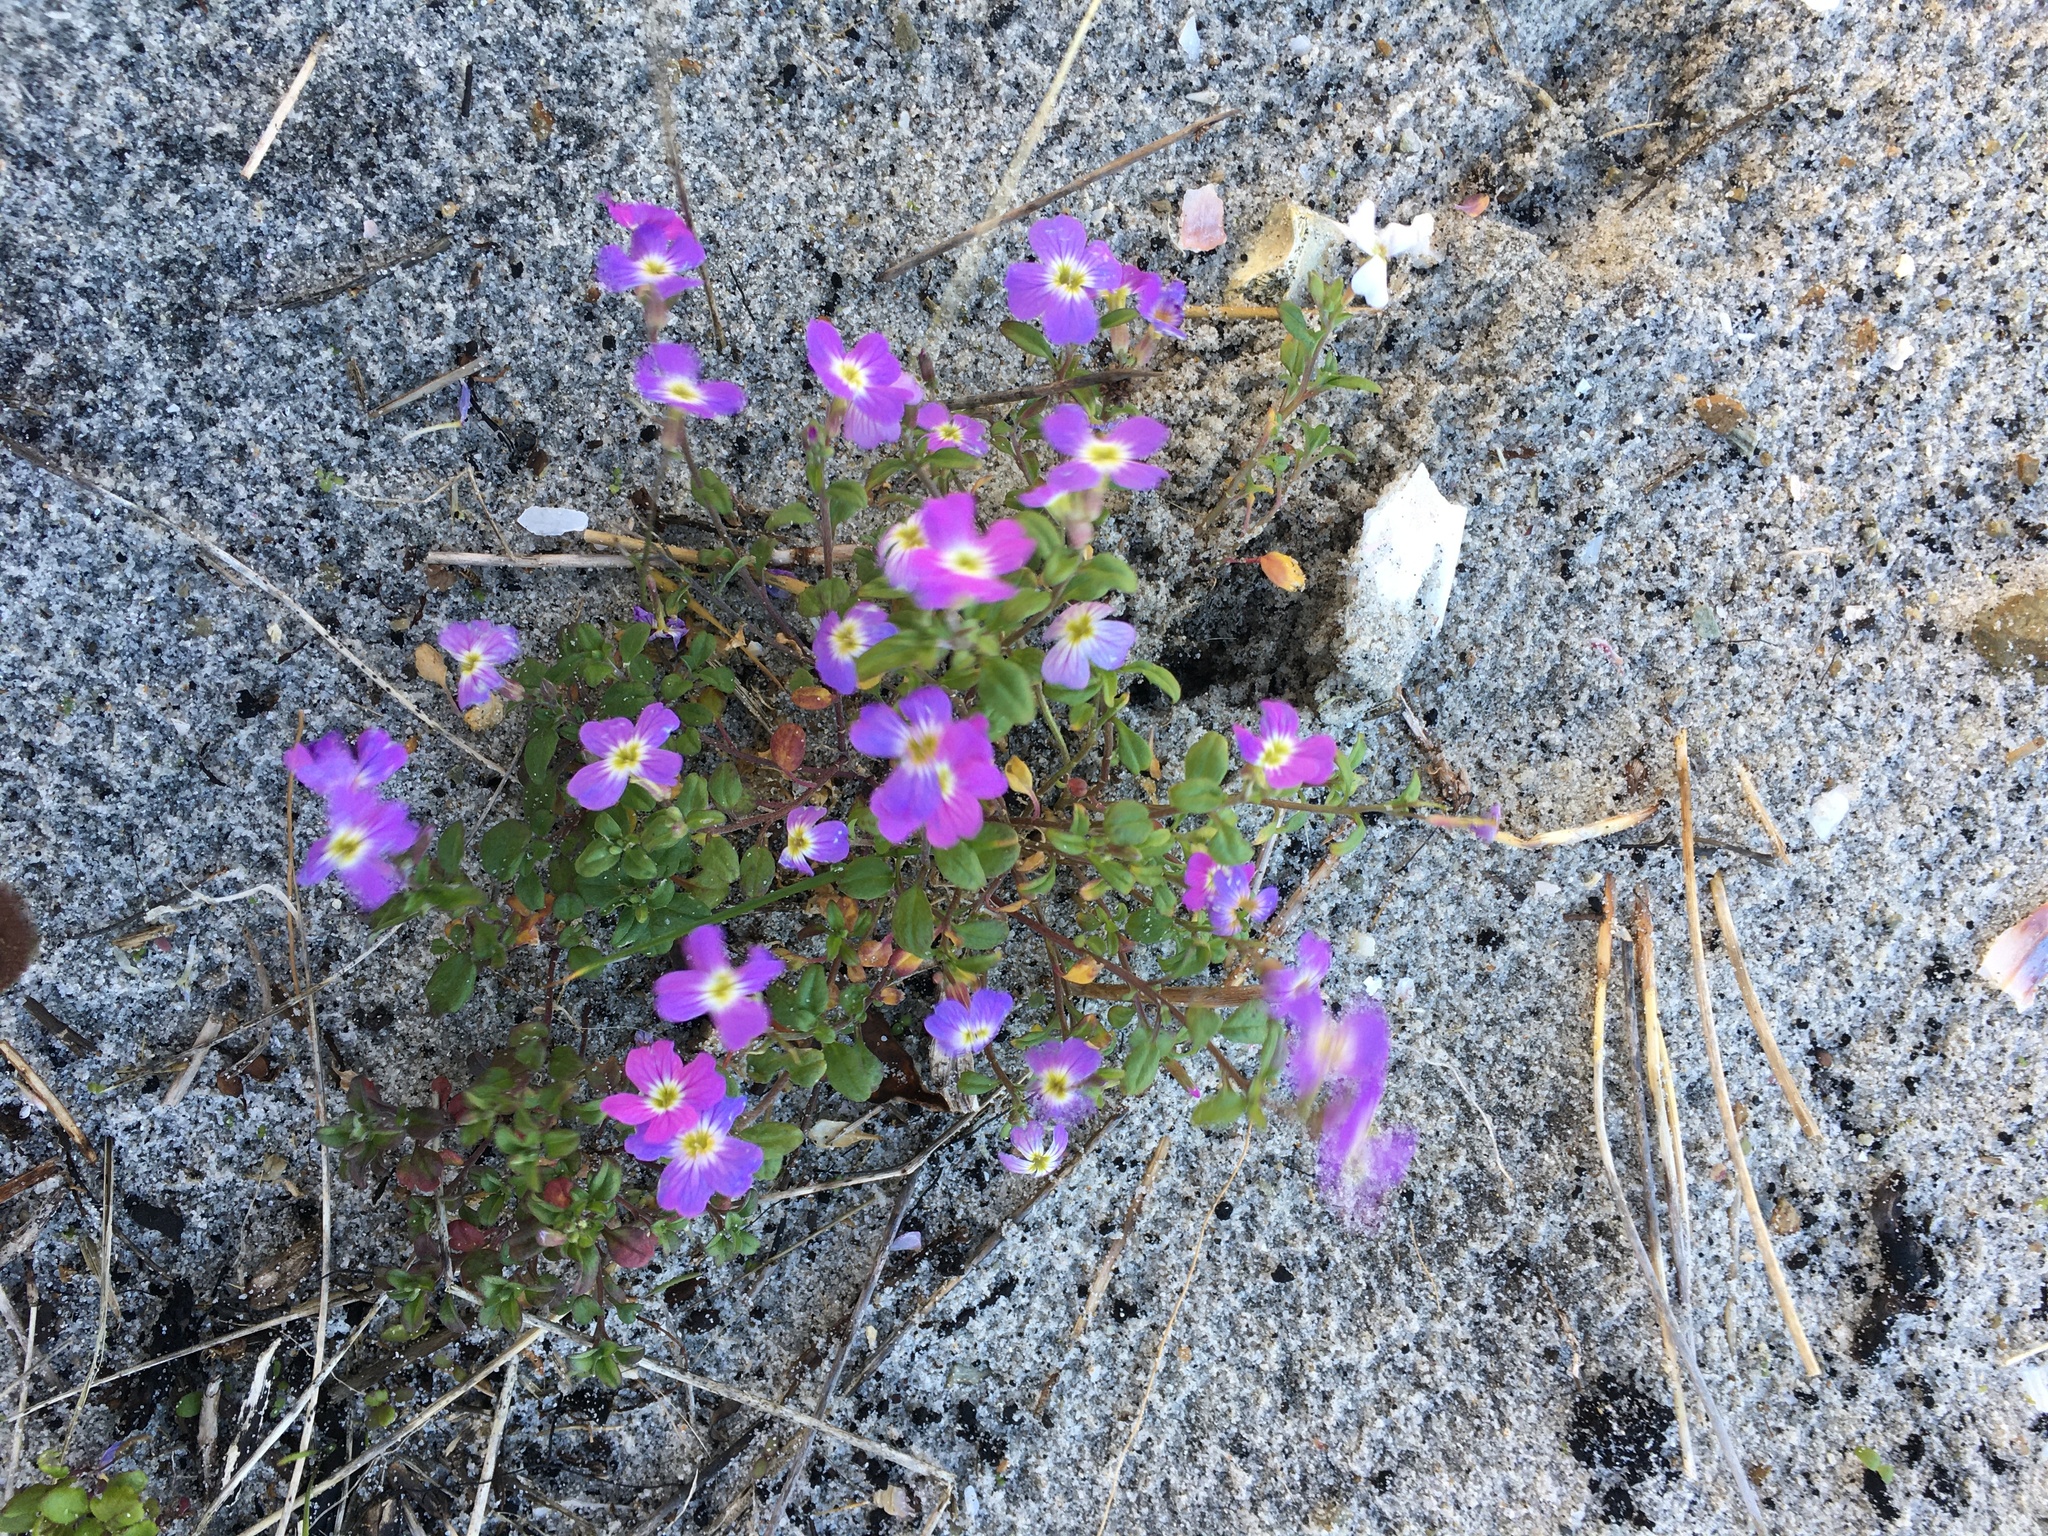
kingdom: Plantae
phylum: Tracheophyta
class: Magnoliopsida
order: Brassicales
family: Brassicaceae
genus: Malcolmia
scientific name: Malcolmia maritima
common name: Virginia stock
